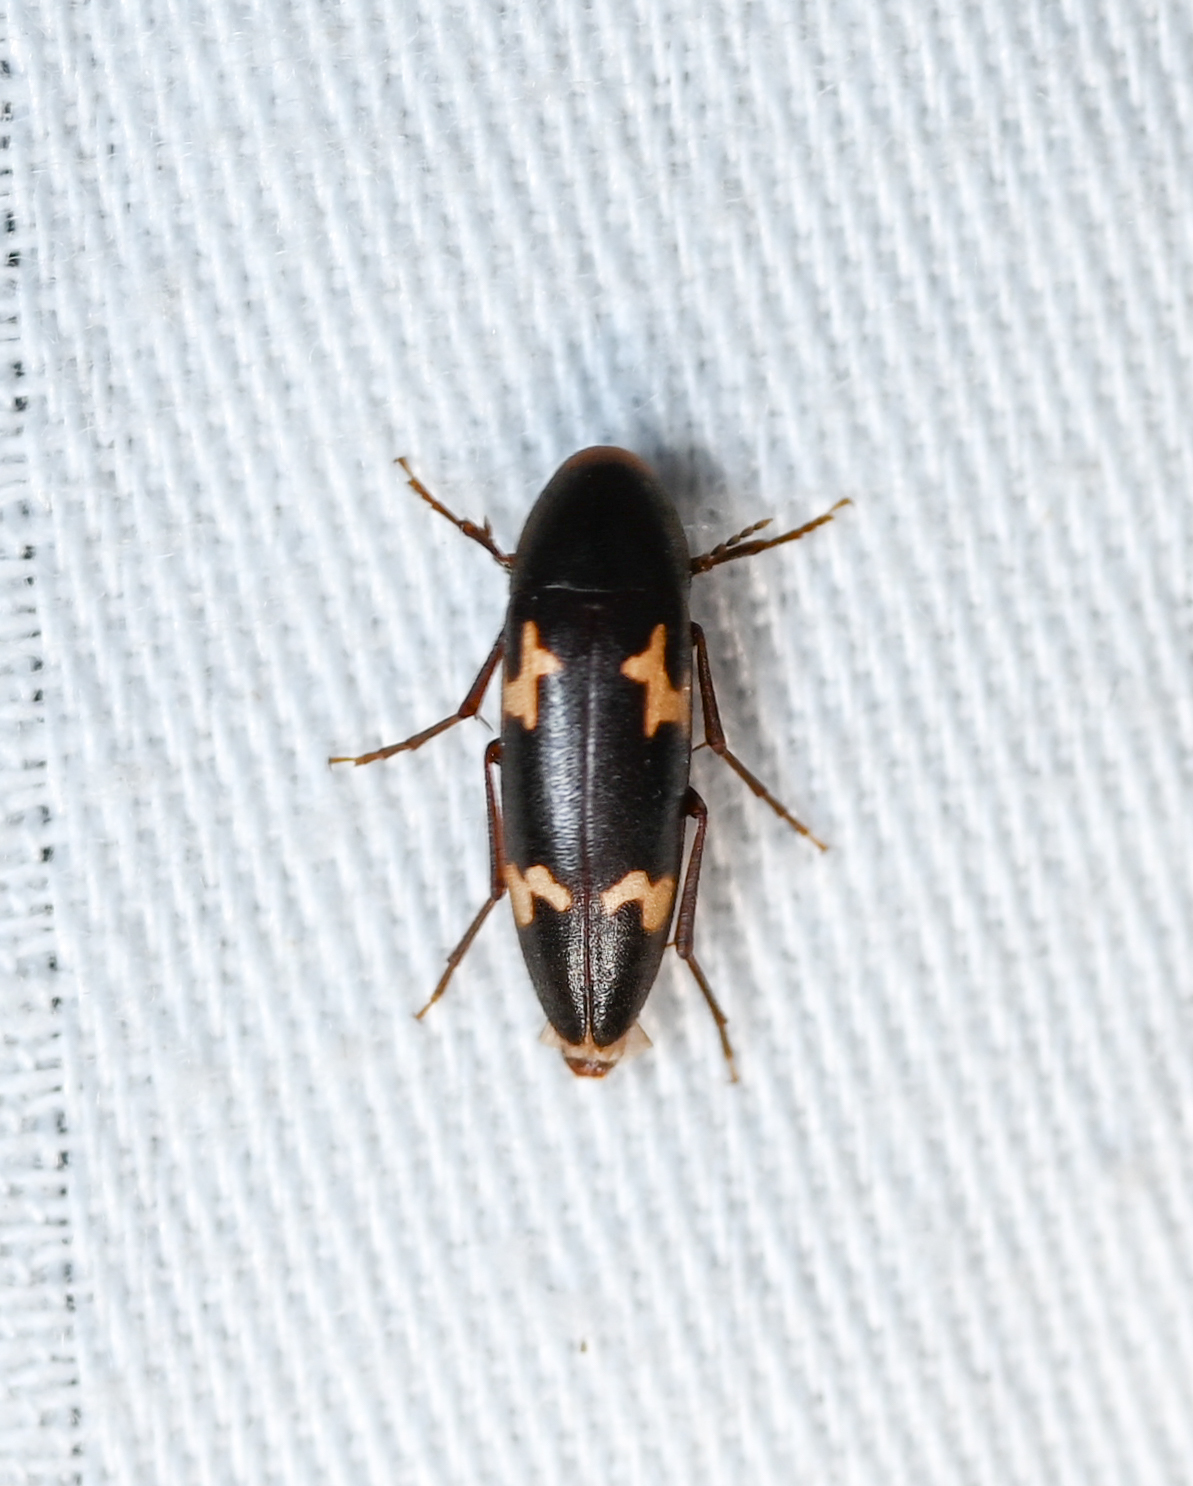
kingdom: Animalia
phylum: Arthropoda
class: Insecta
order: Coleoptera
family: Melandryidae
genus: Dircaea
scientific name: Dircaea liturata
